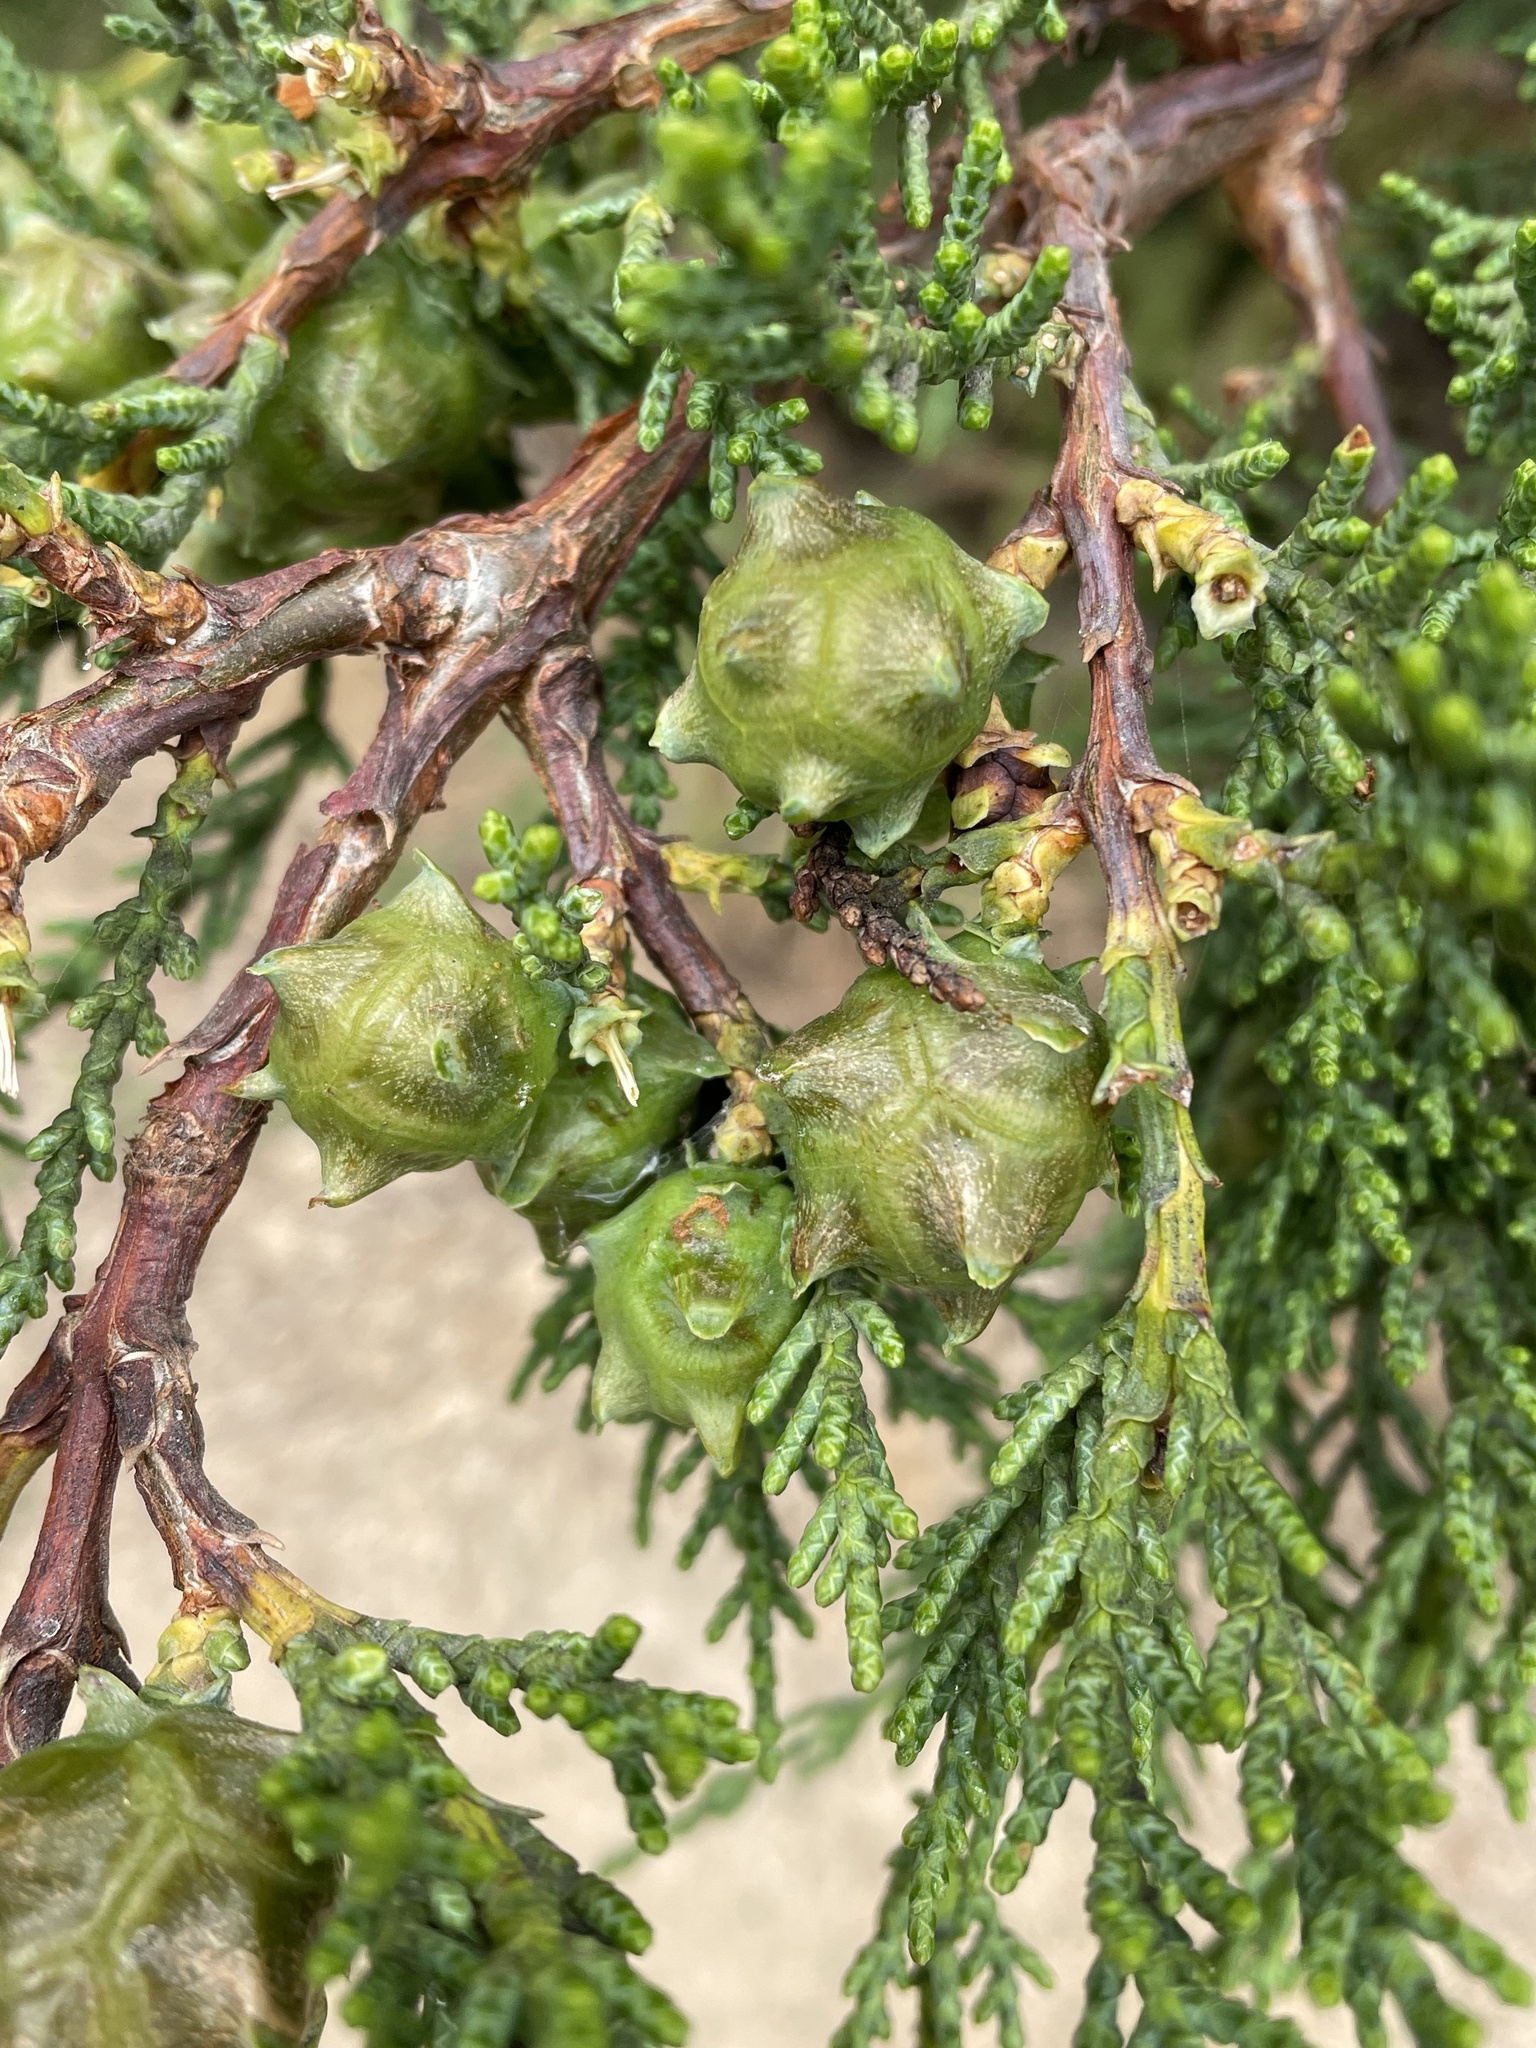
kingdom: Plantae
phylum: Tracheophyta
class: Pinopsida
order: Pinales
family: Cupressaceae
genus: Cupressus
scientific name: Cupressus macrocarpa
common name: Monterey cypress
